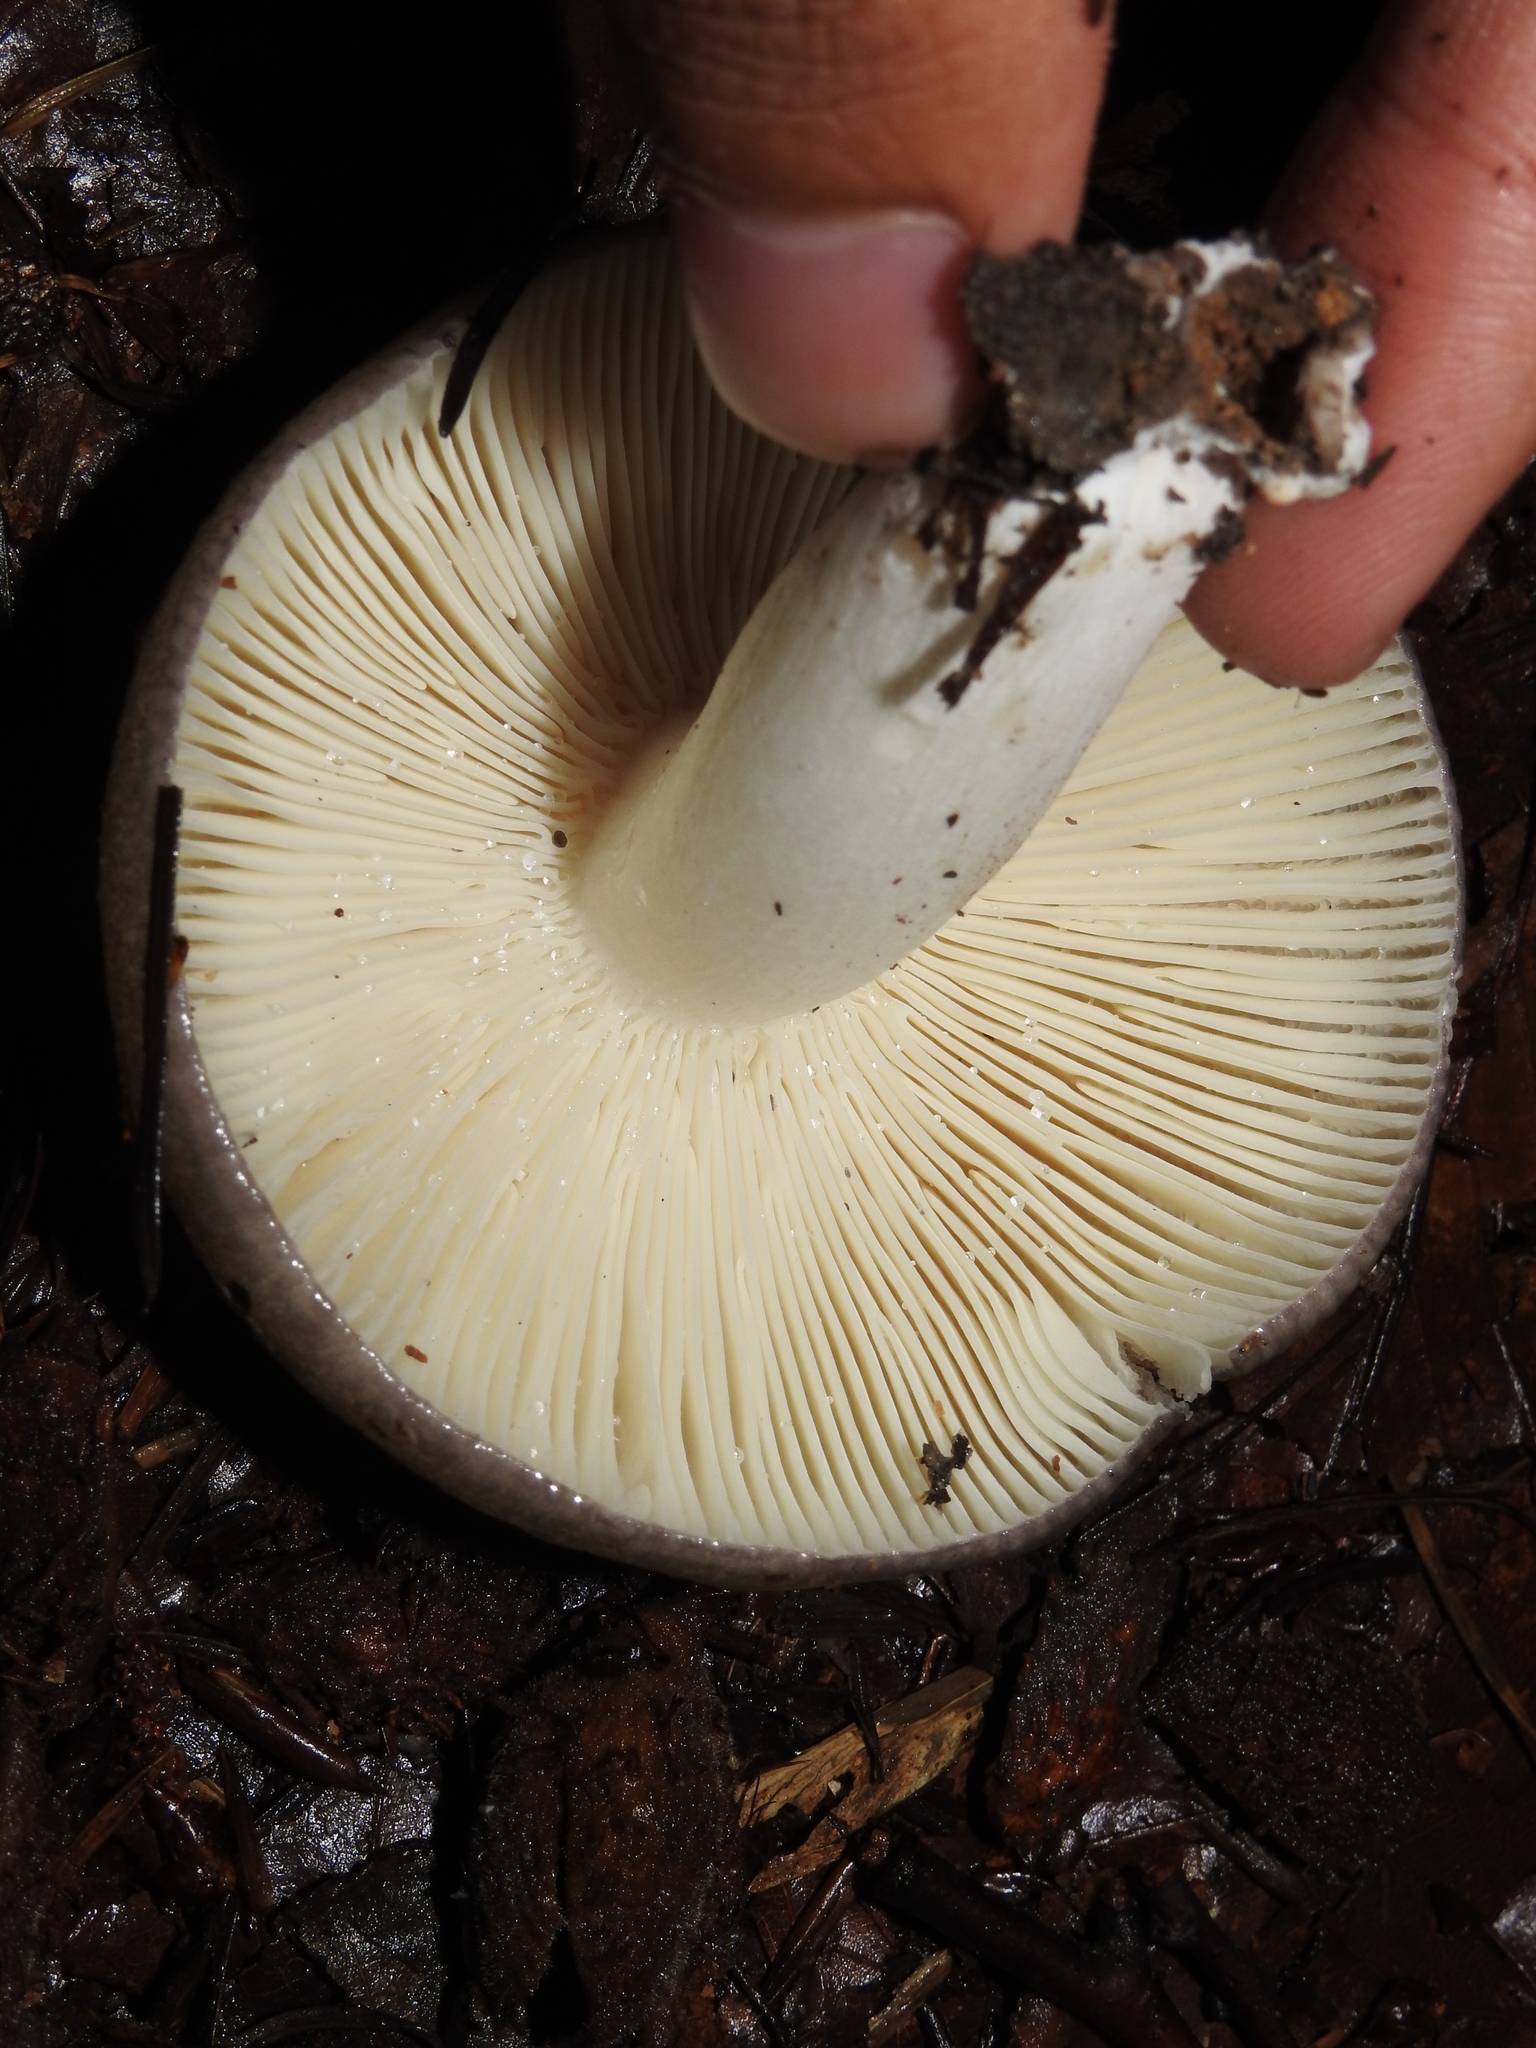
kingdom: Fungi
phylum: Basidiomycota
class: Agaricomycetes
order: Russulales
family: Russulaceae
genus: Russula
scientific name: Russula cyanoxantha
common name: Charcoal burner
